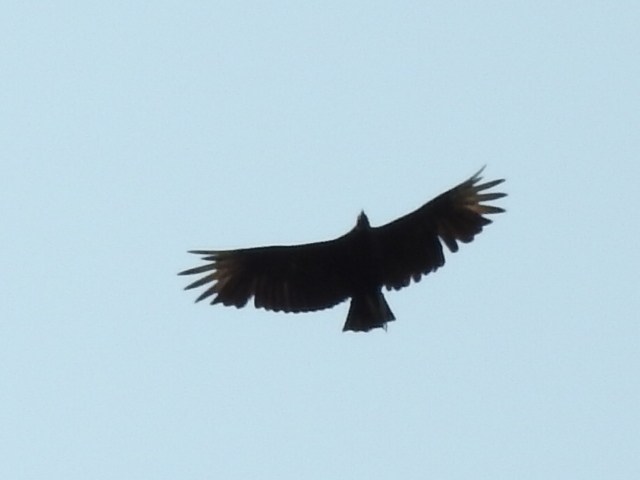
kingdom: Animalia
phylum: Chordata
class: Aves
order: Accipitriformes
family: Cathartidae
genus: Coragyps
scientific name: Coragyps atratus
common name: Black vulture
